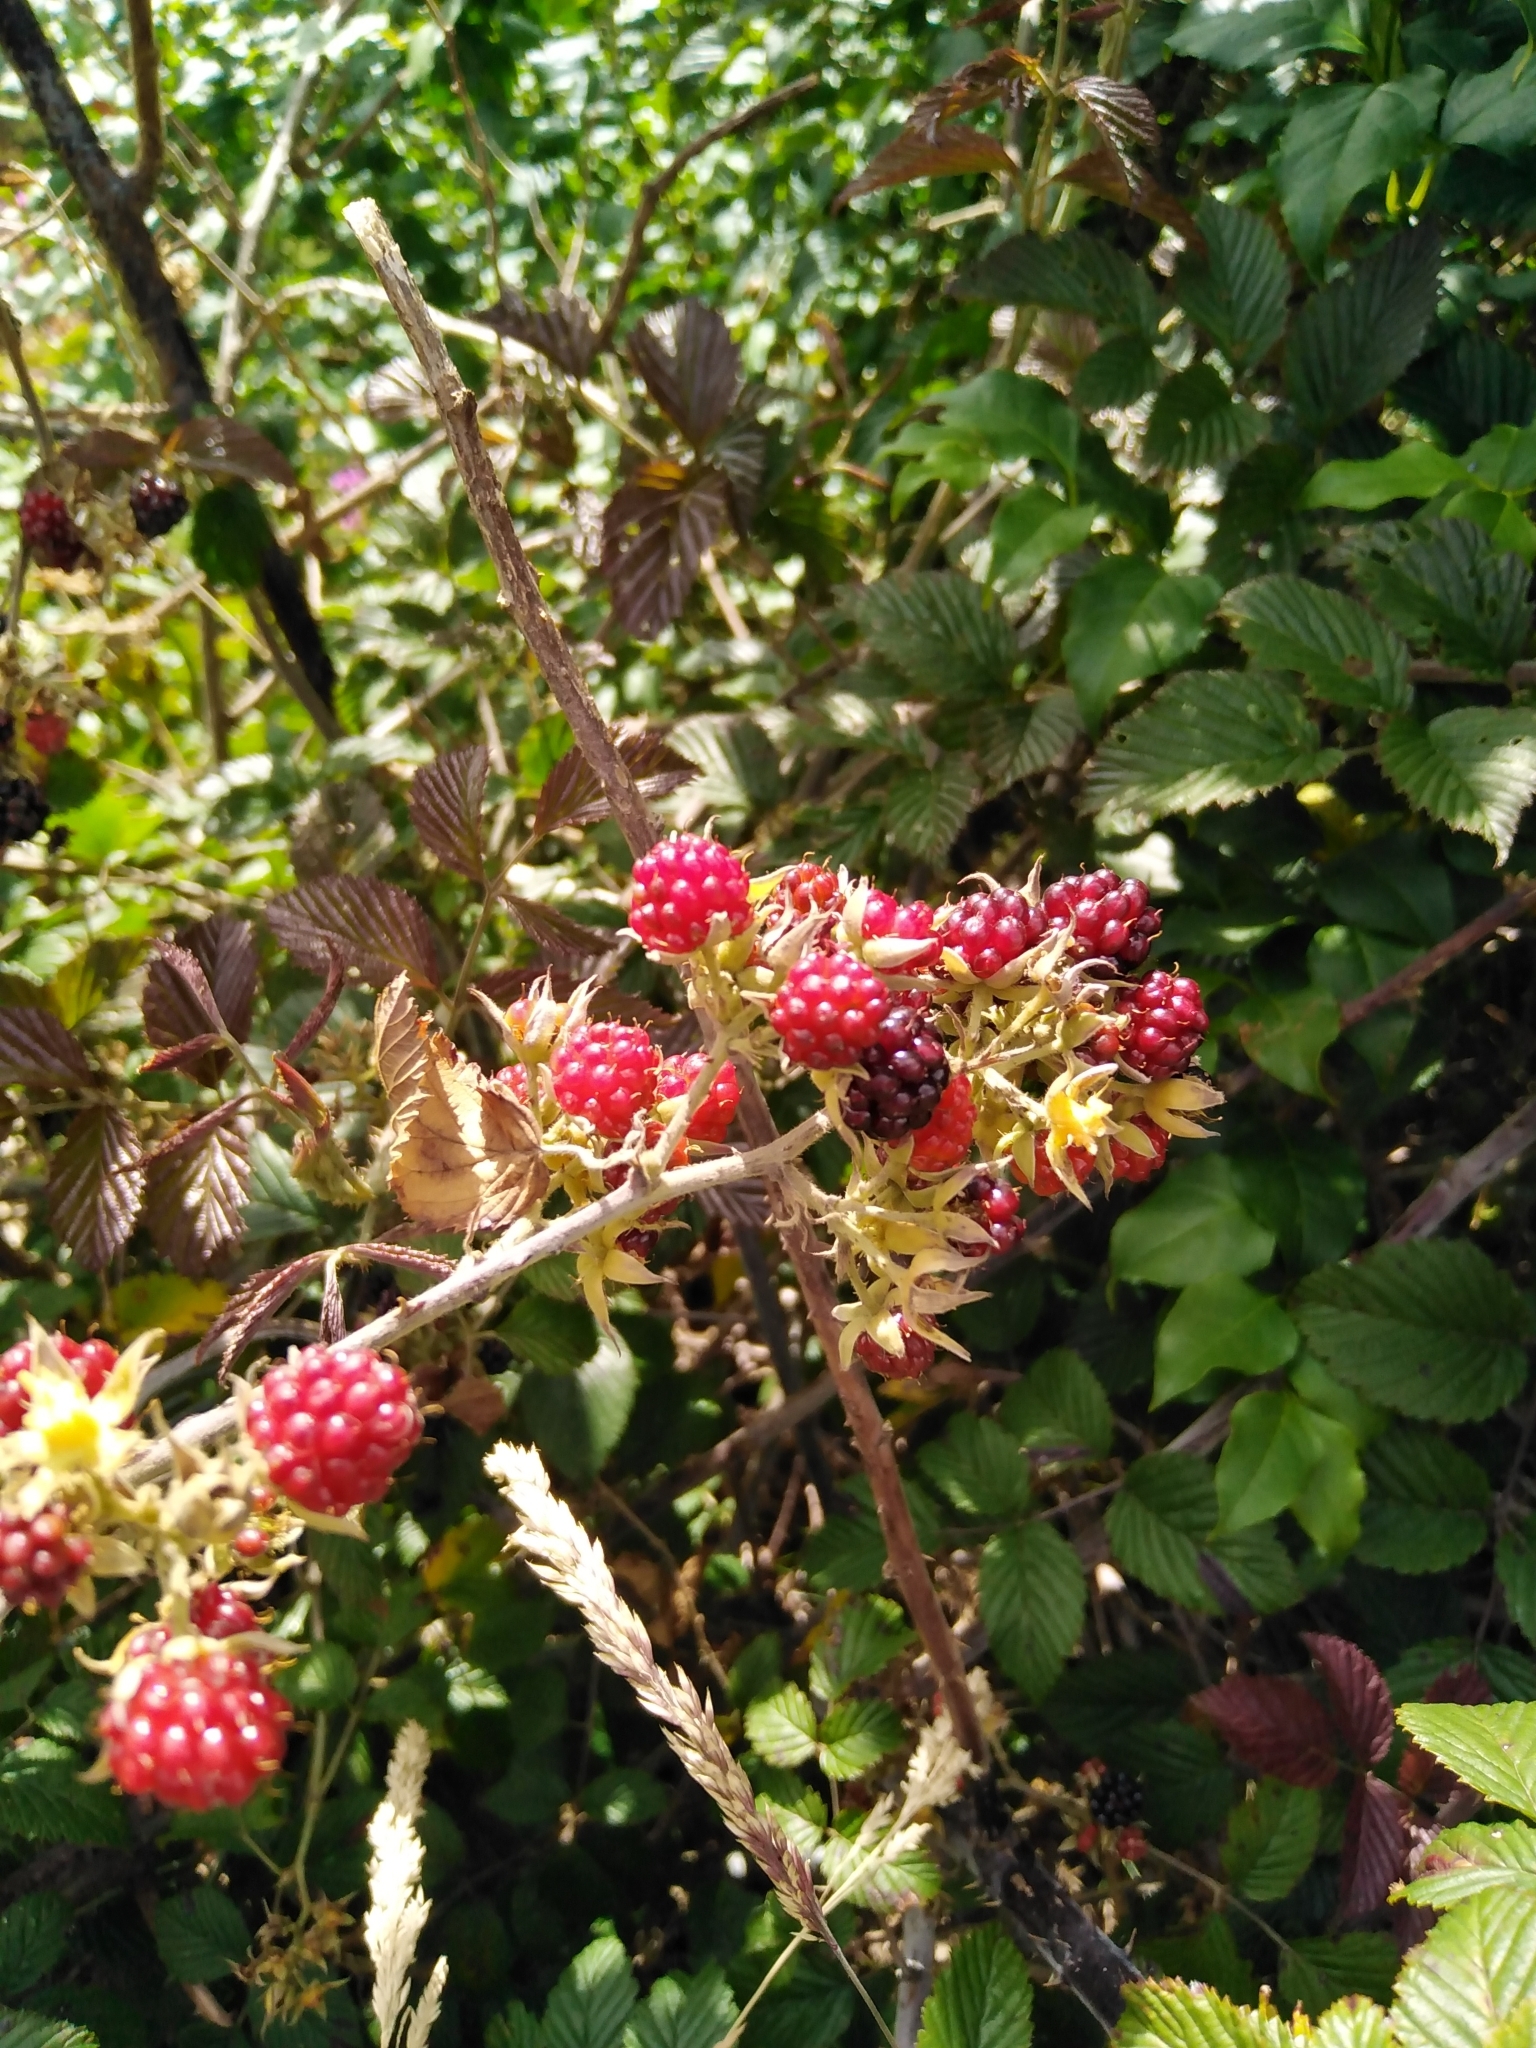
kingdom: Plantae
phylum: Tracheophyta
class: Magnoliopsida
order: Rosales
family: Rosaceae
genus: Rubus
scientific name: Rubus pinnatus
